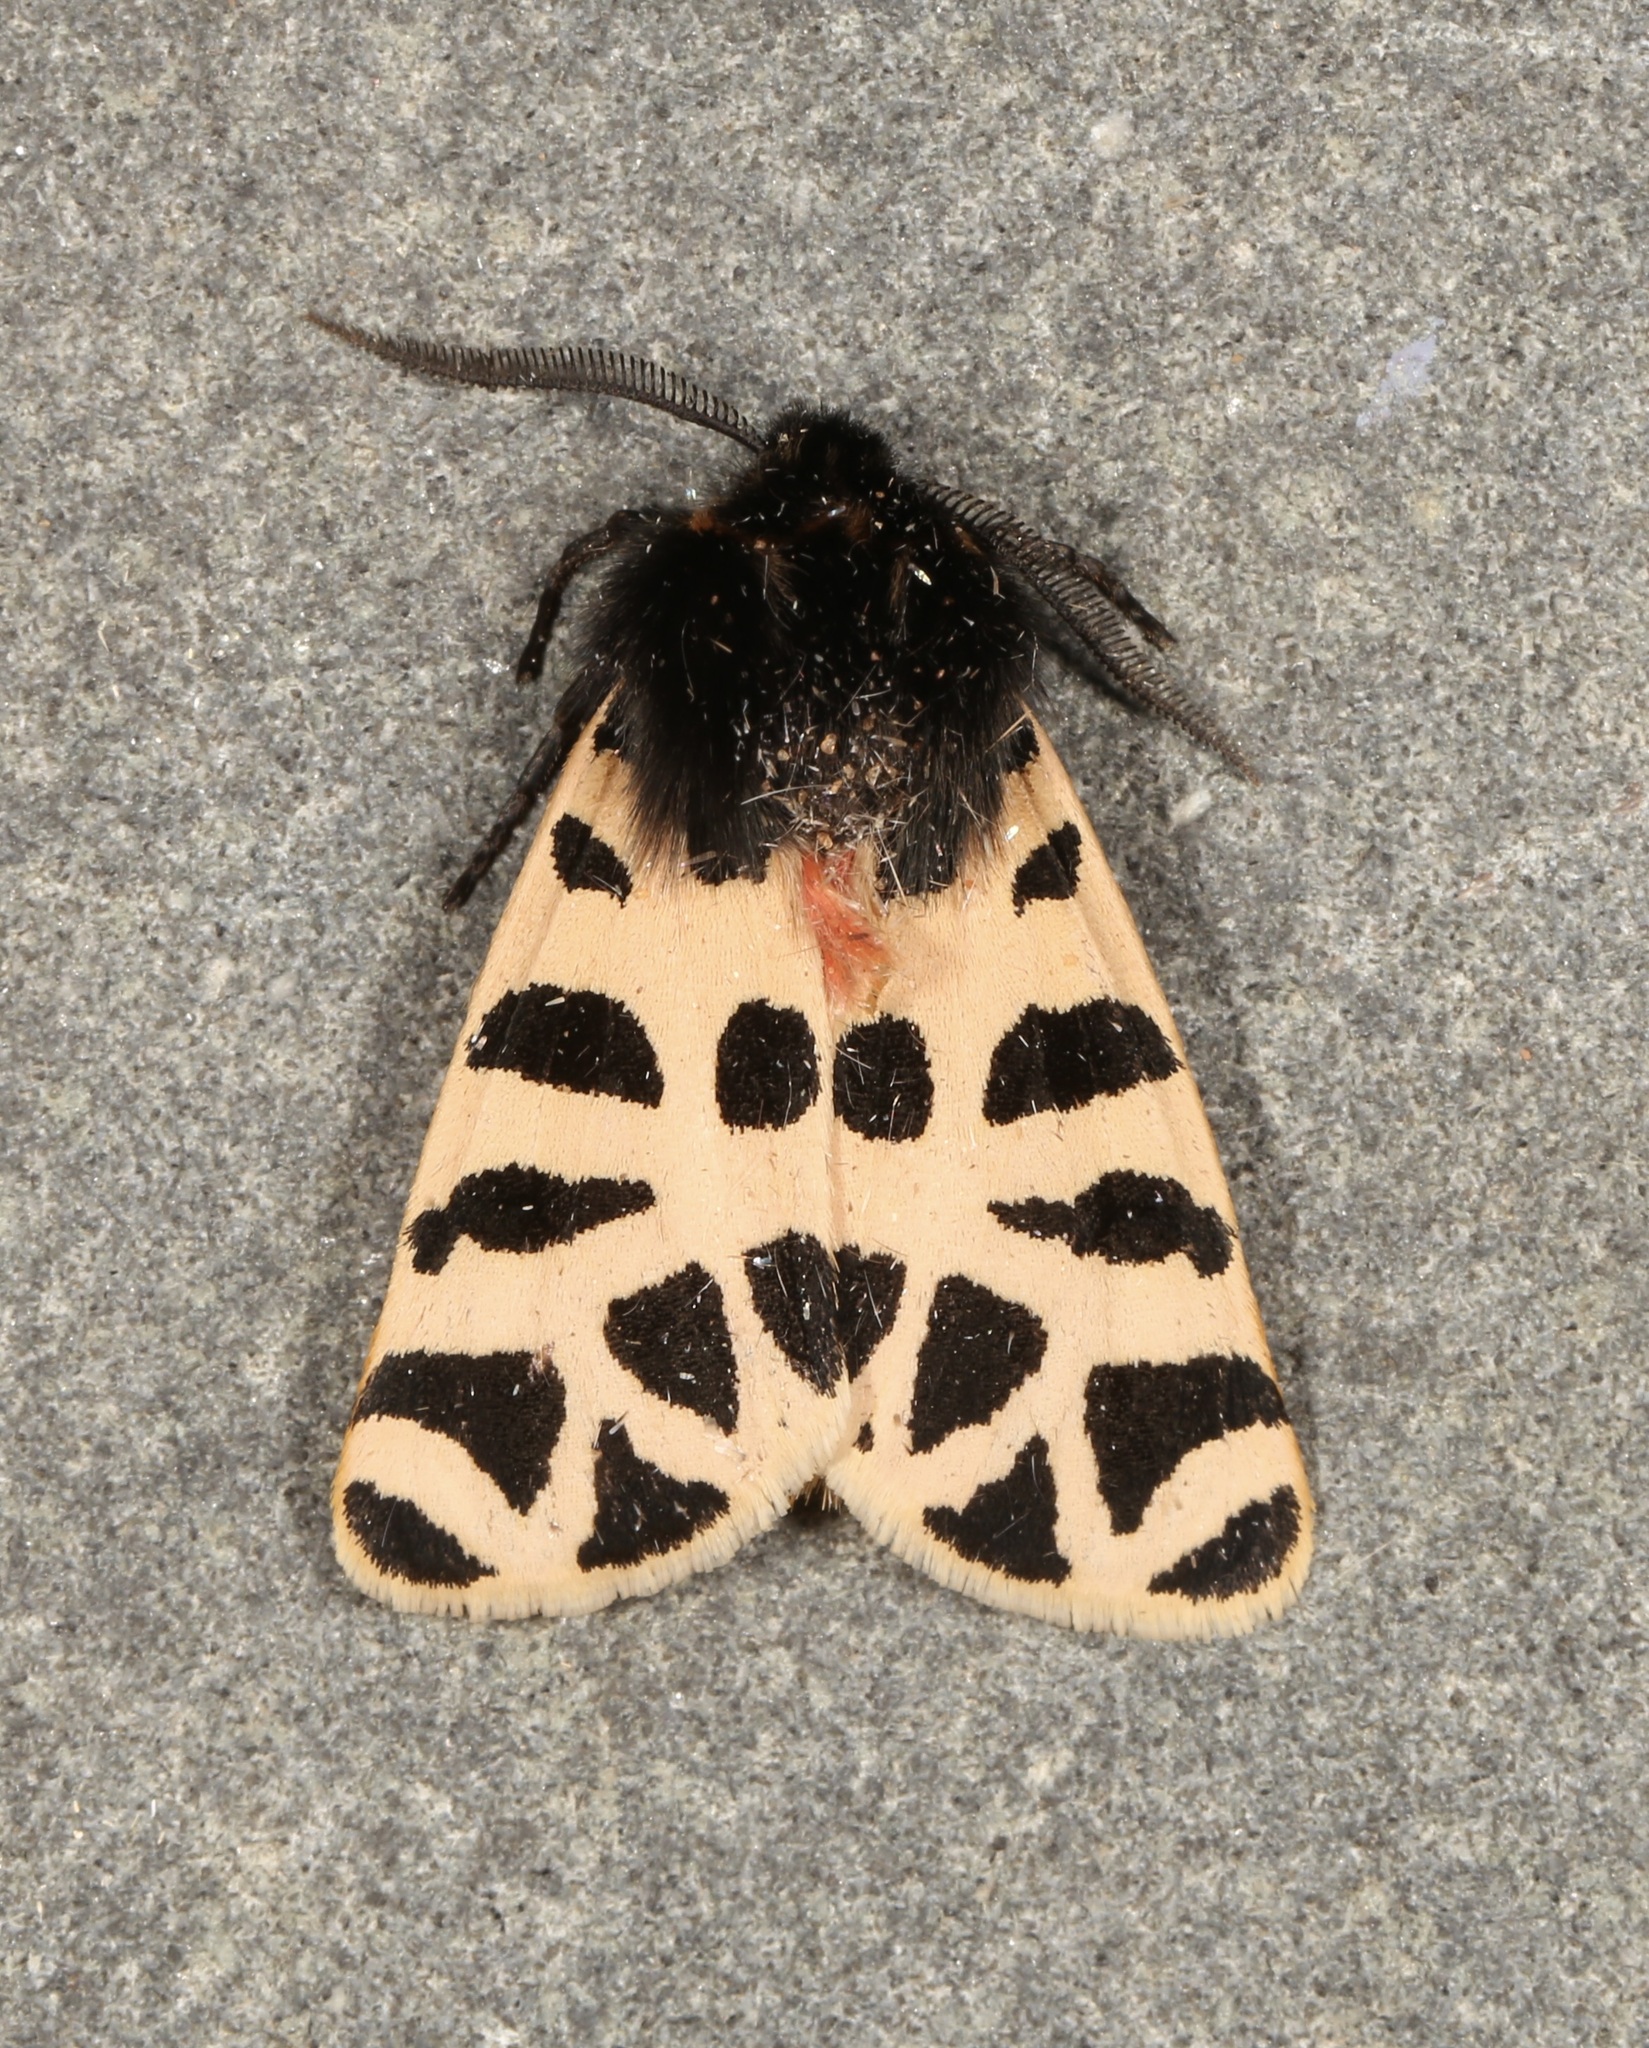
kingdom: Animalia
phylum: Arthropoda
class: Insecta
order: Lepidoptera
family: Erebidae
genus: Apantesis
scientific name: Apantesis incorrupta
